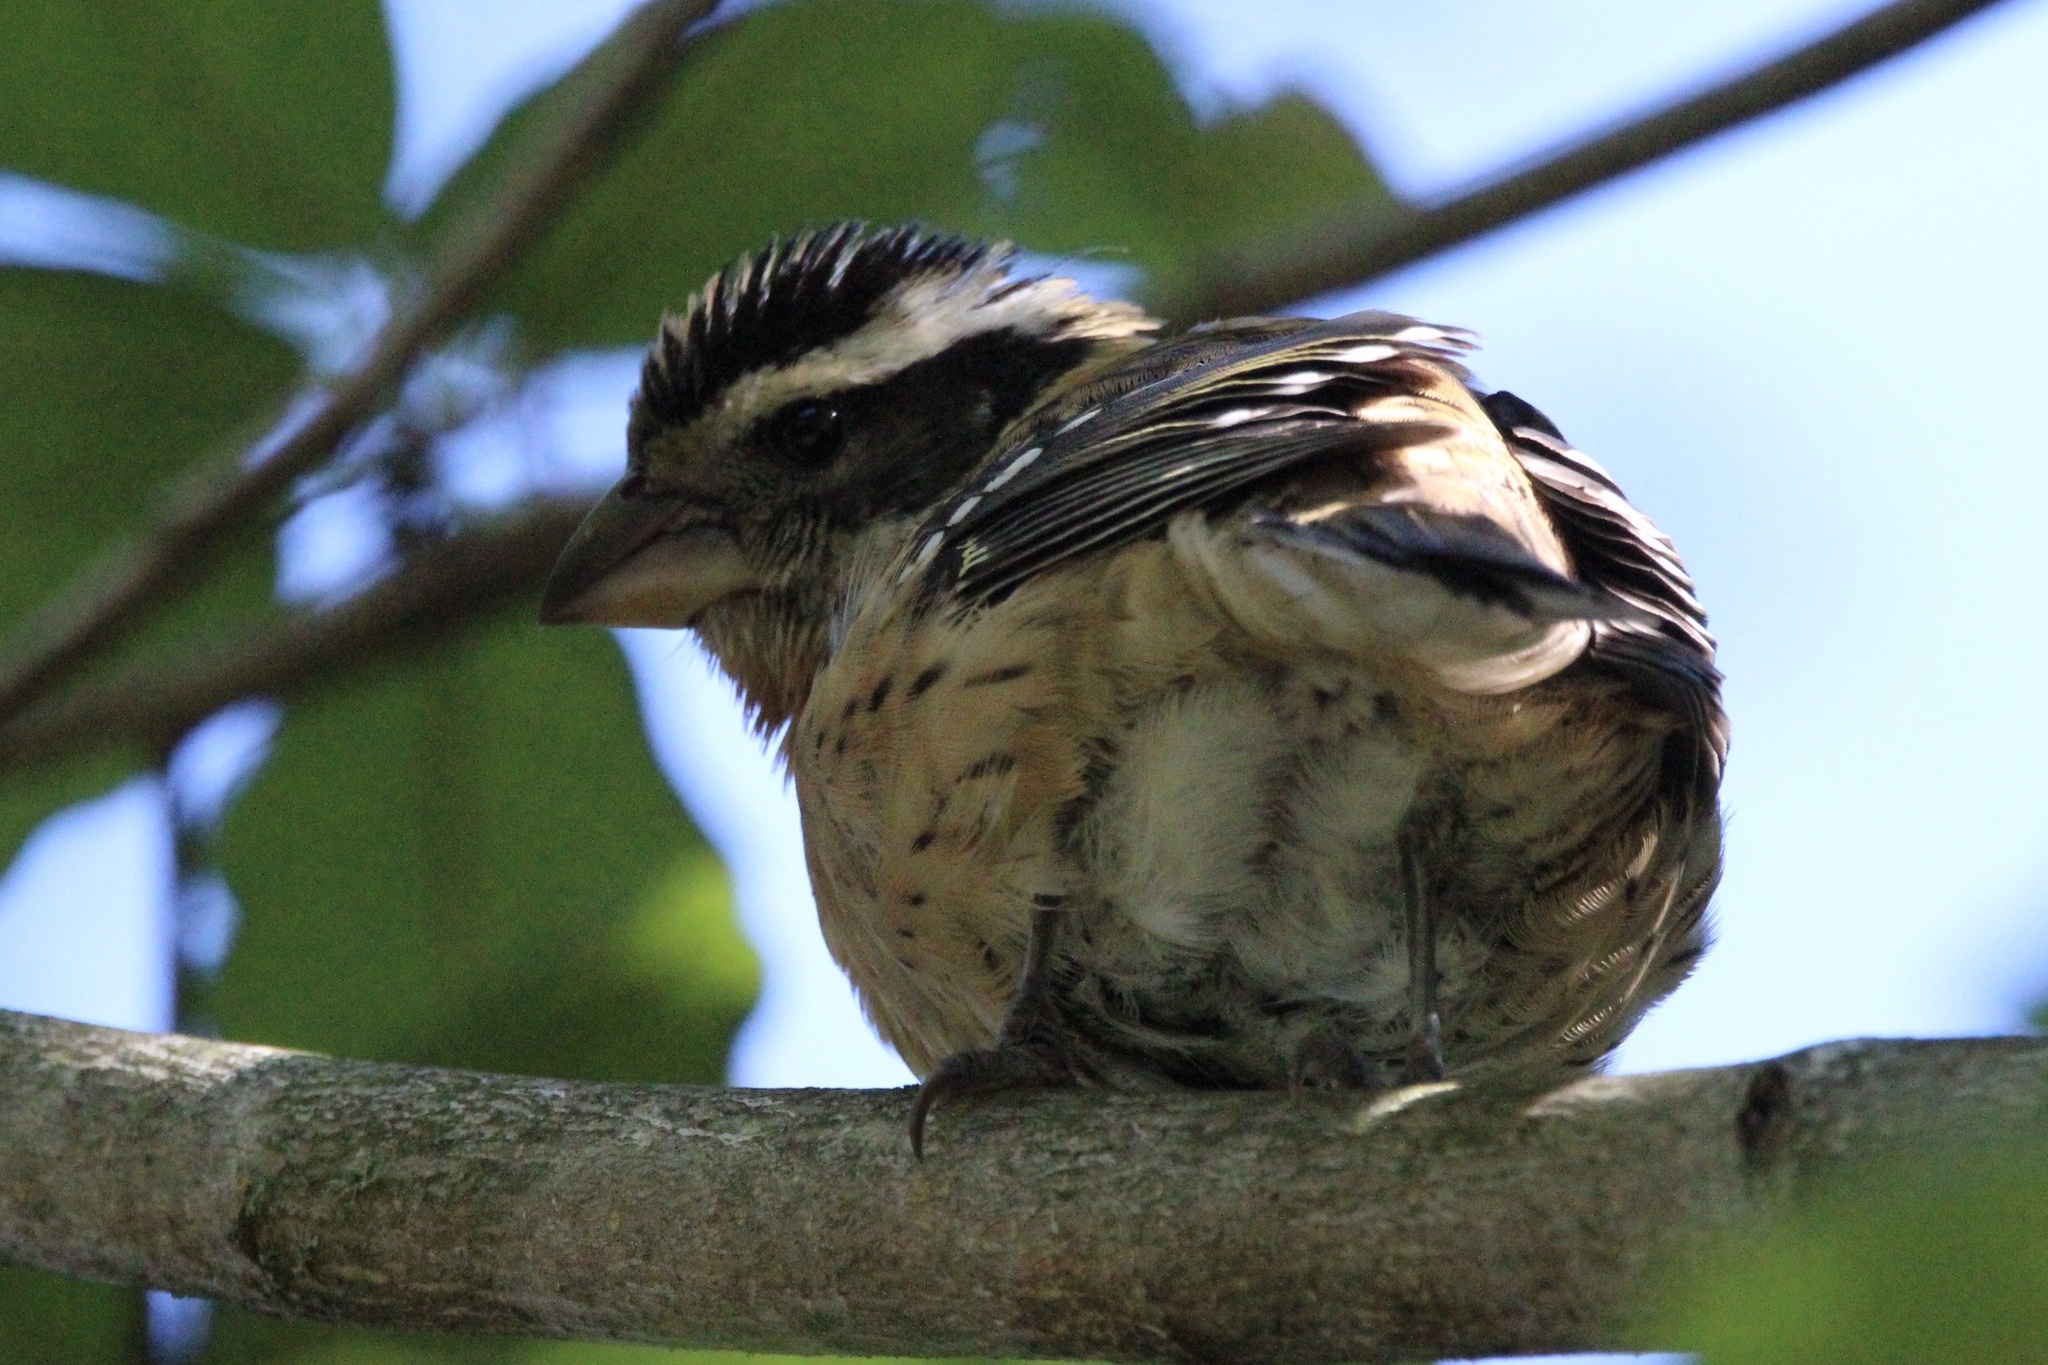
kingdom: Animalia
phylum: Chordata
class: Aves
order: Passeriformes
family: Cardinalidae
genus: Pheucticus
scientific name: Pheucticus melanocephalus
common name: Black-headed grosbeak
